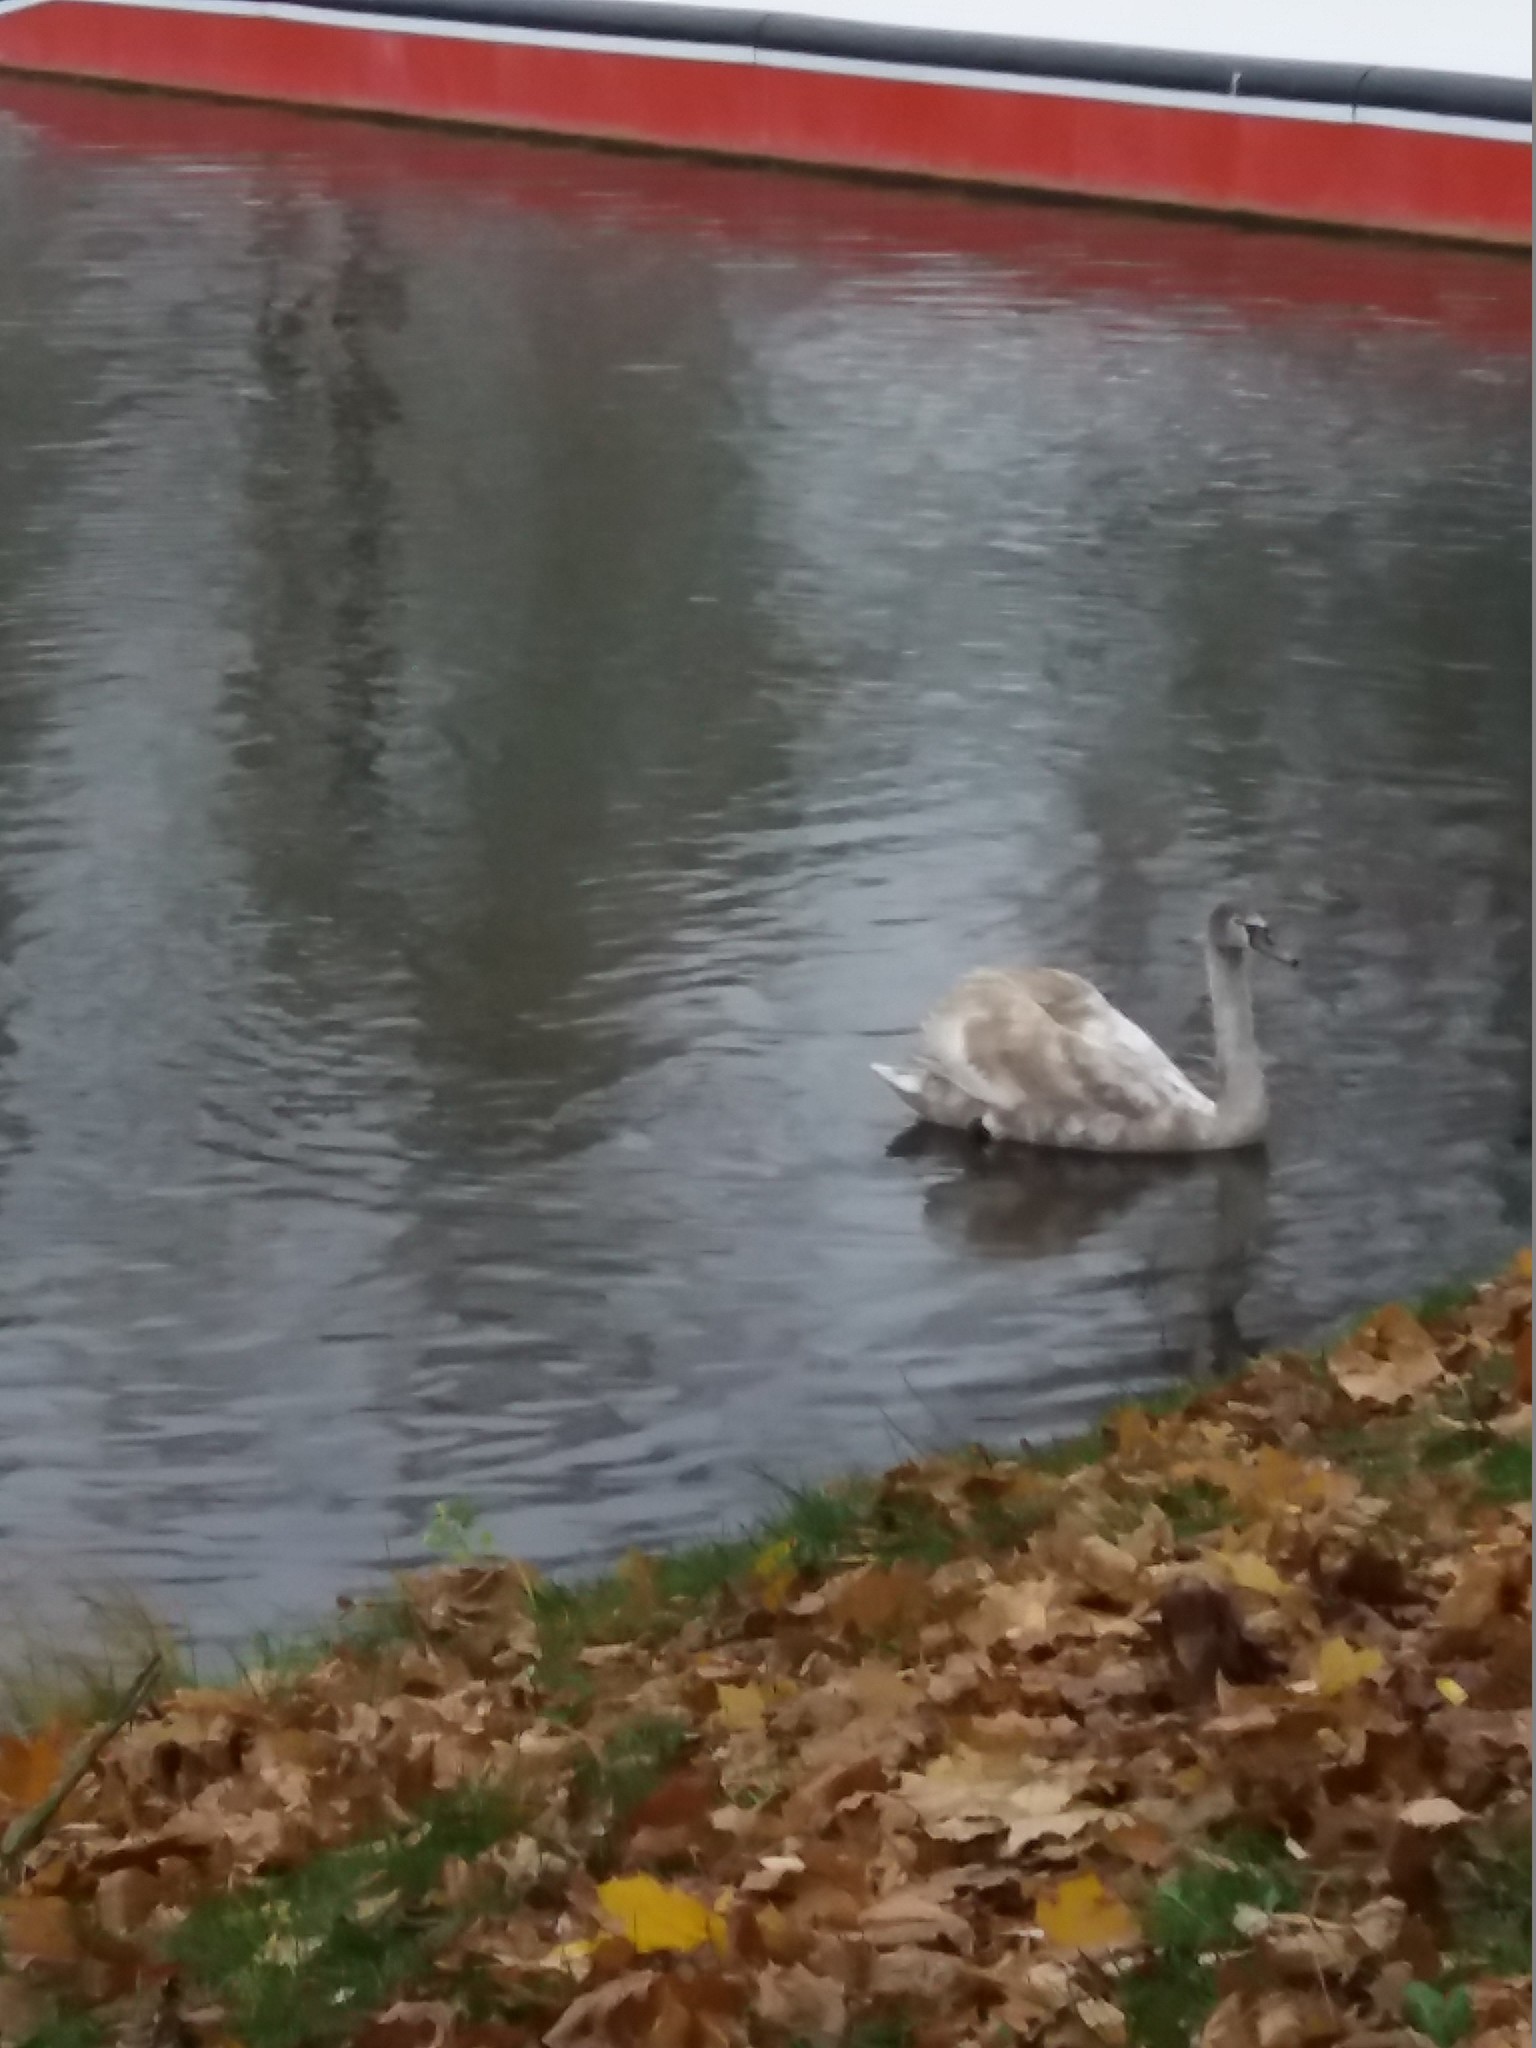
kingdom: Animalia
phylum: Chordata
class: Aves
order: Anseriformes
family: Anatidae
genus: Cygnus
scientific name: Cygnus olor
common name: Mute swan
